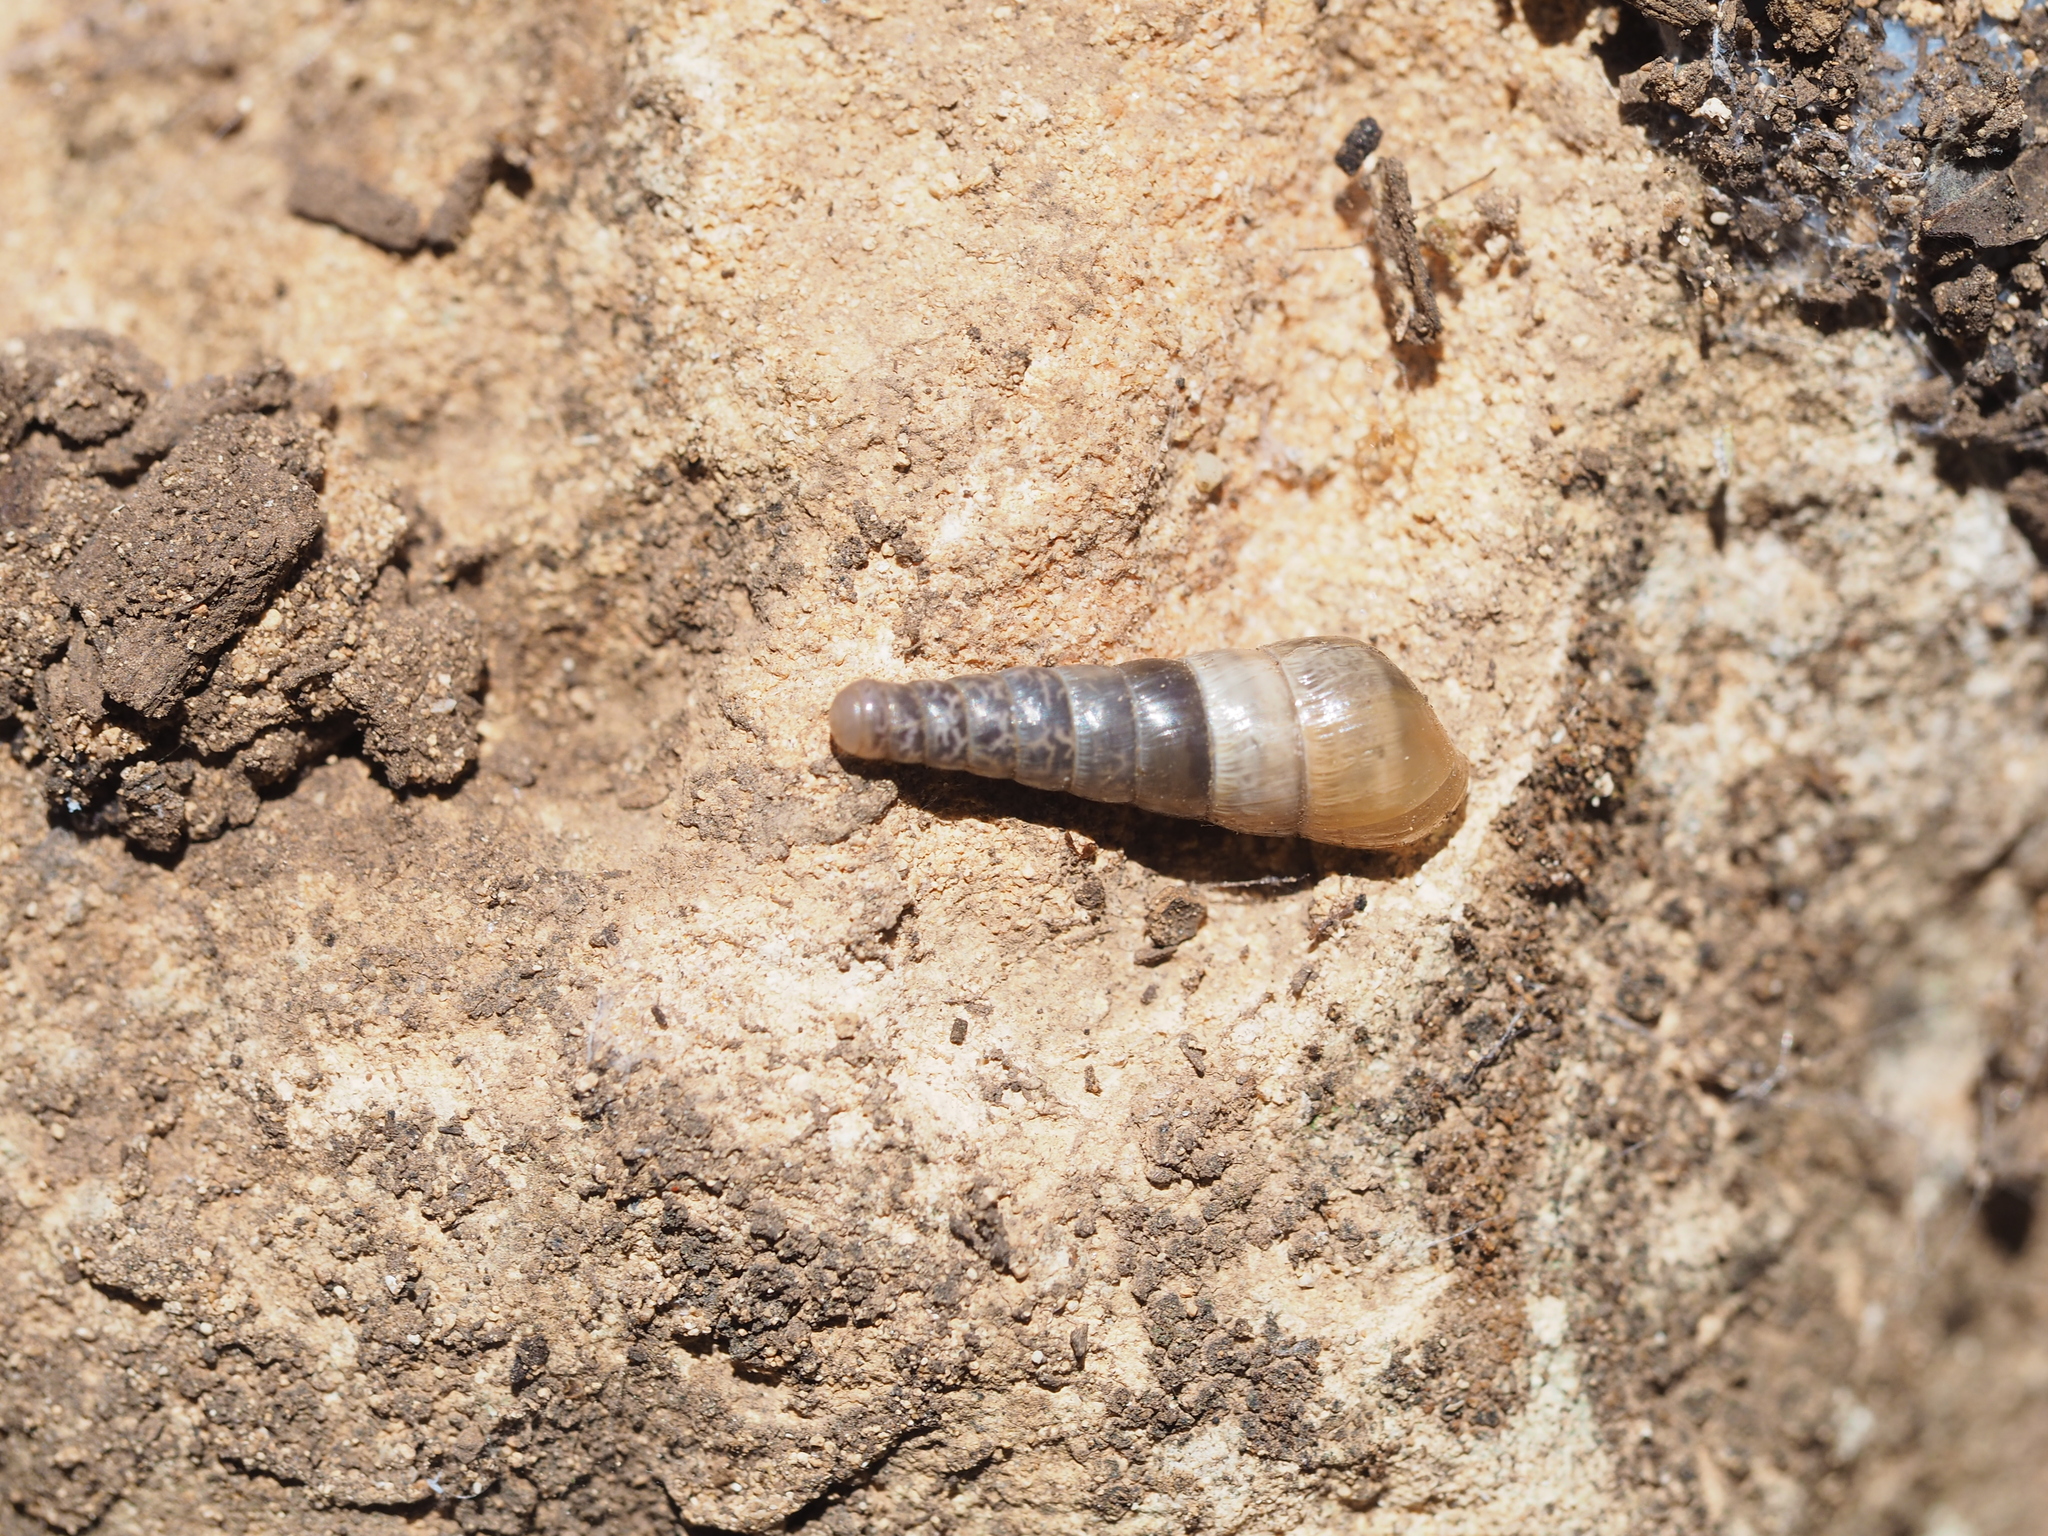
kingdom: Animalia
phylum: Mollusca
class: Gastropoda
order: Stylommatophora
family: Achatinidae
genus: Rumina
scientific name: Rumina decollata
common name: Decollate snail
